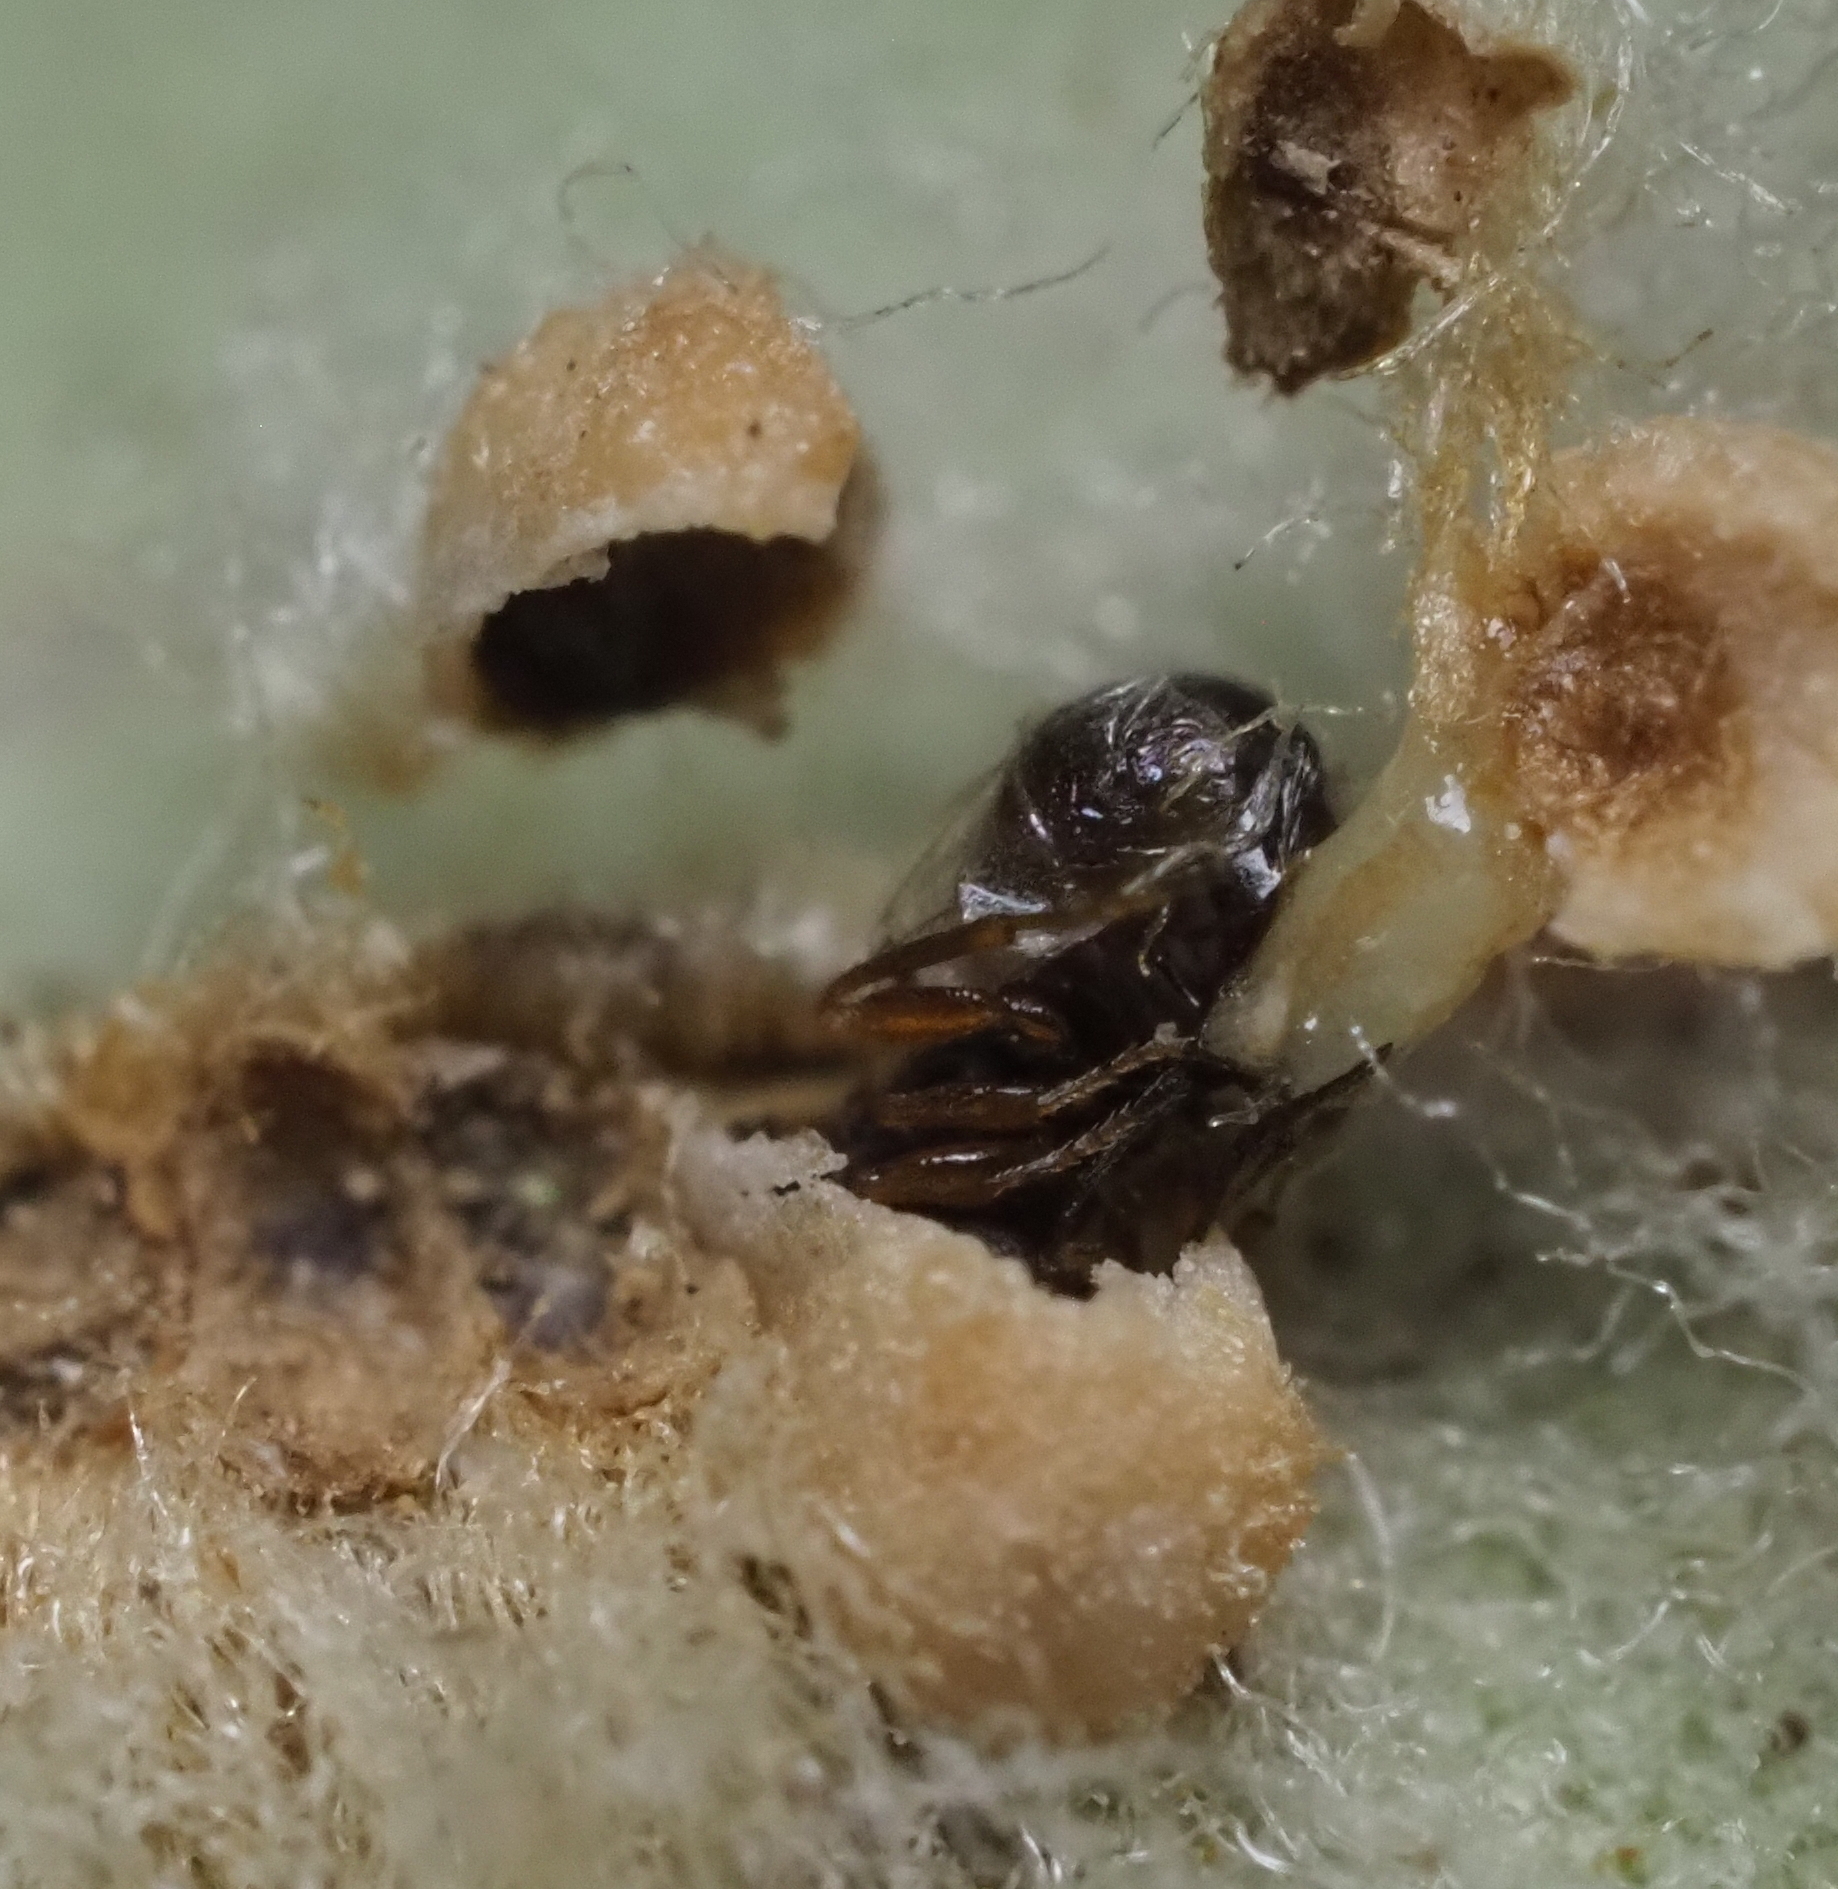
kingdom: Animalia
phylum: Arthropoda
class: Insecta
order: Hymenoptera
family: Cynipidae
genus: Andricus
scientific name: Andricus Druon quercuslanigerum
